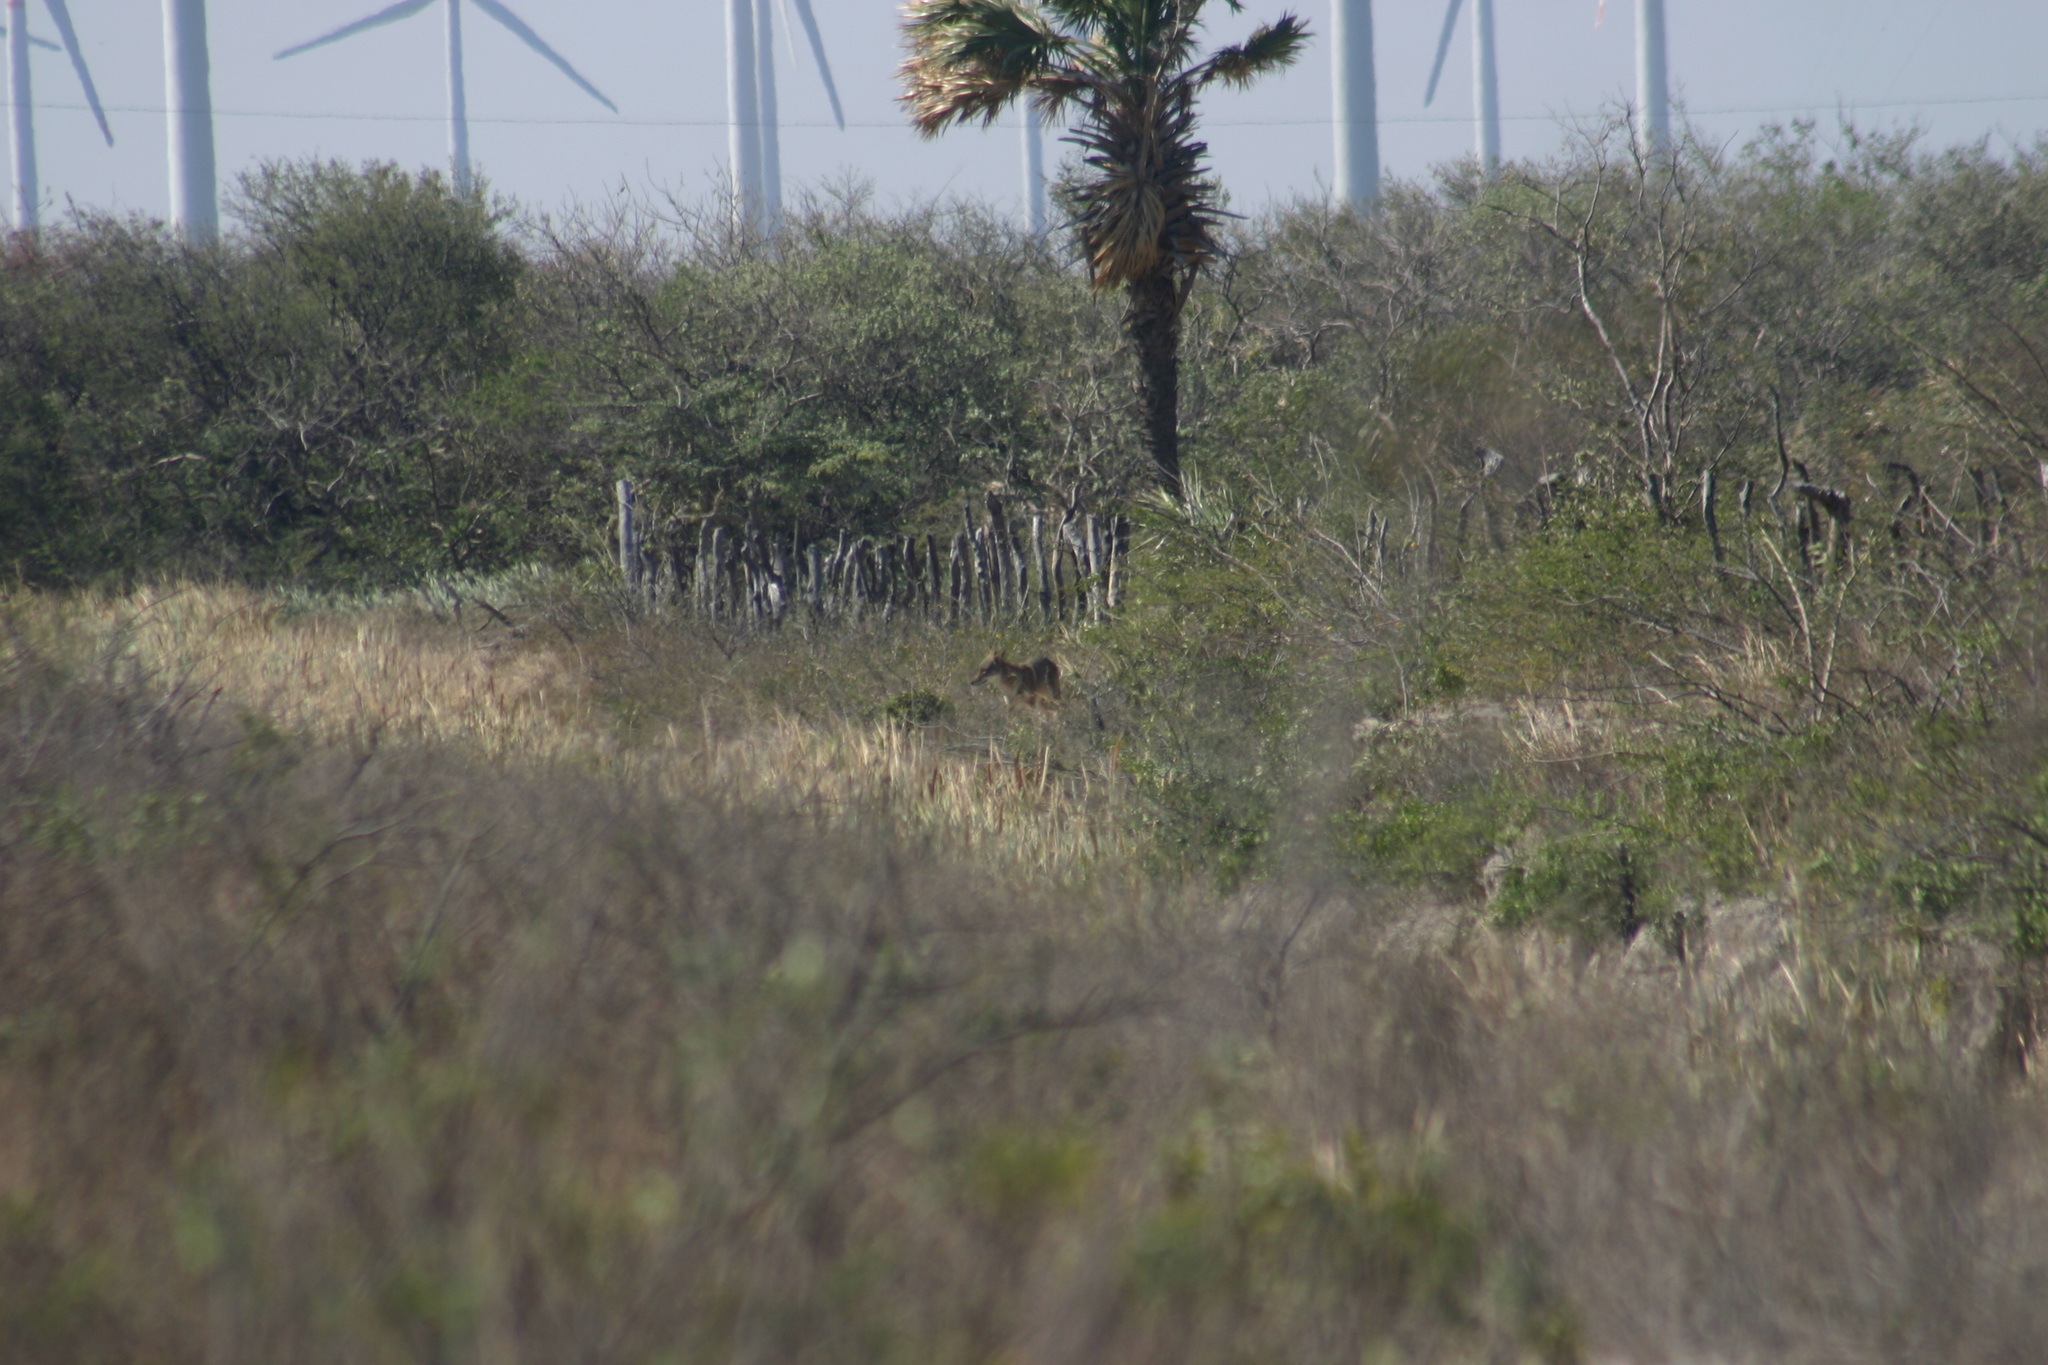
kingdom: Animalia
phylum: Chordata
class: Mammalia
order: Carnivora
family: Canidae
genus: Canis
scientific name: Canis latrans
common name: Coyote
